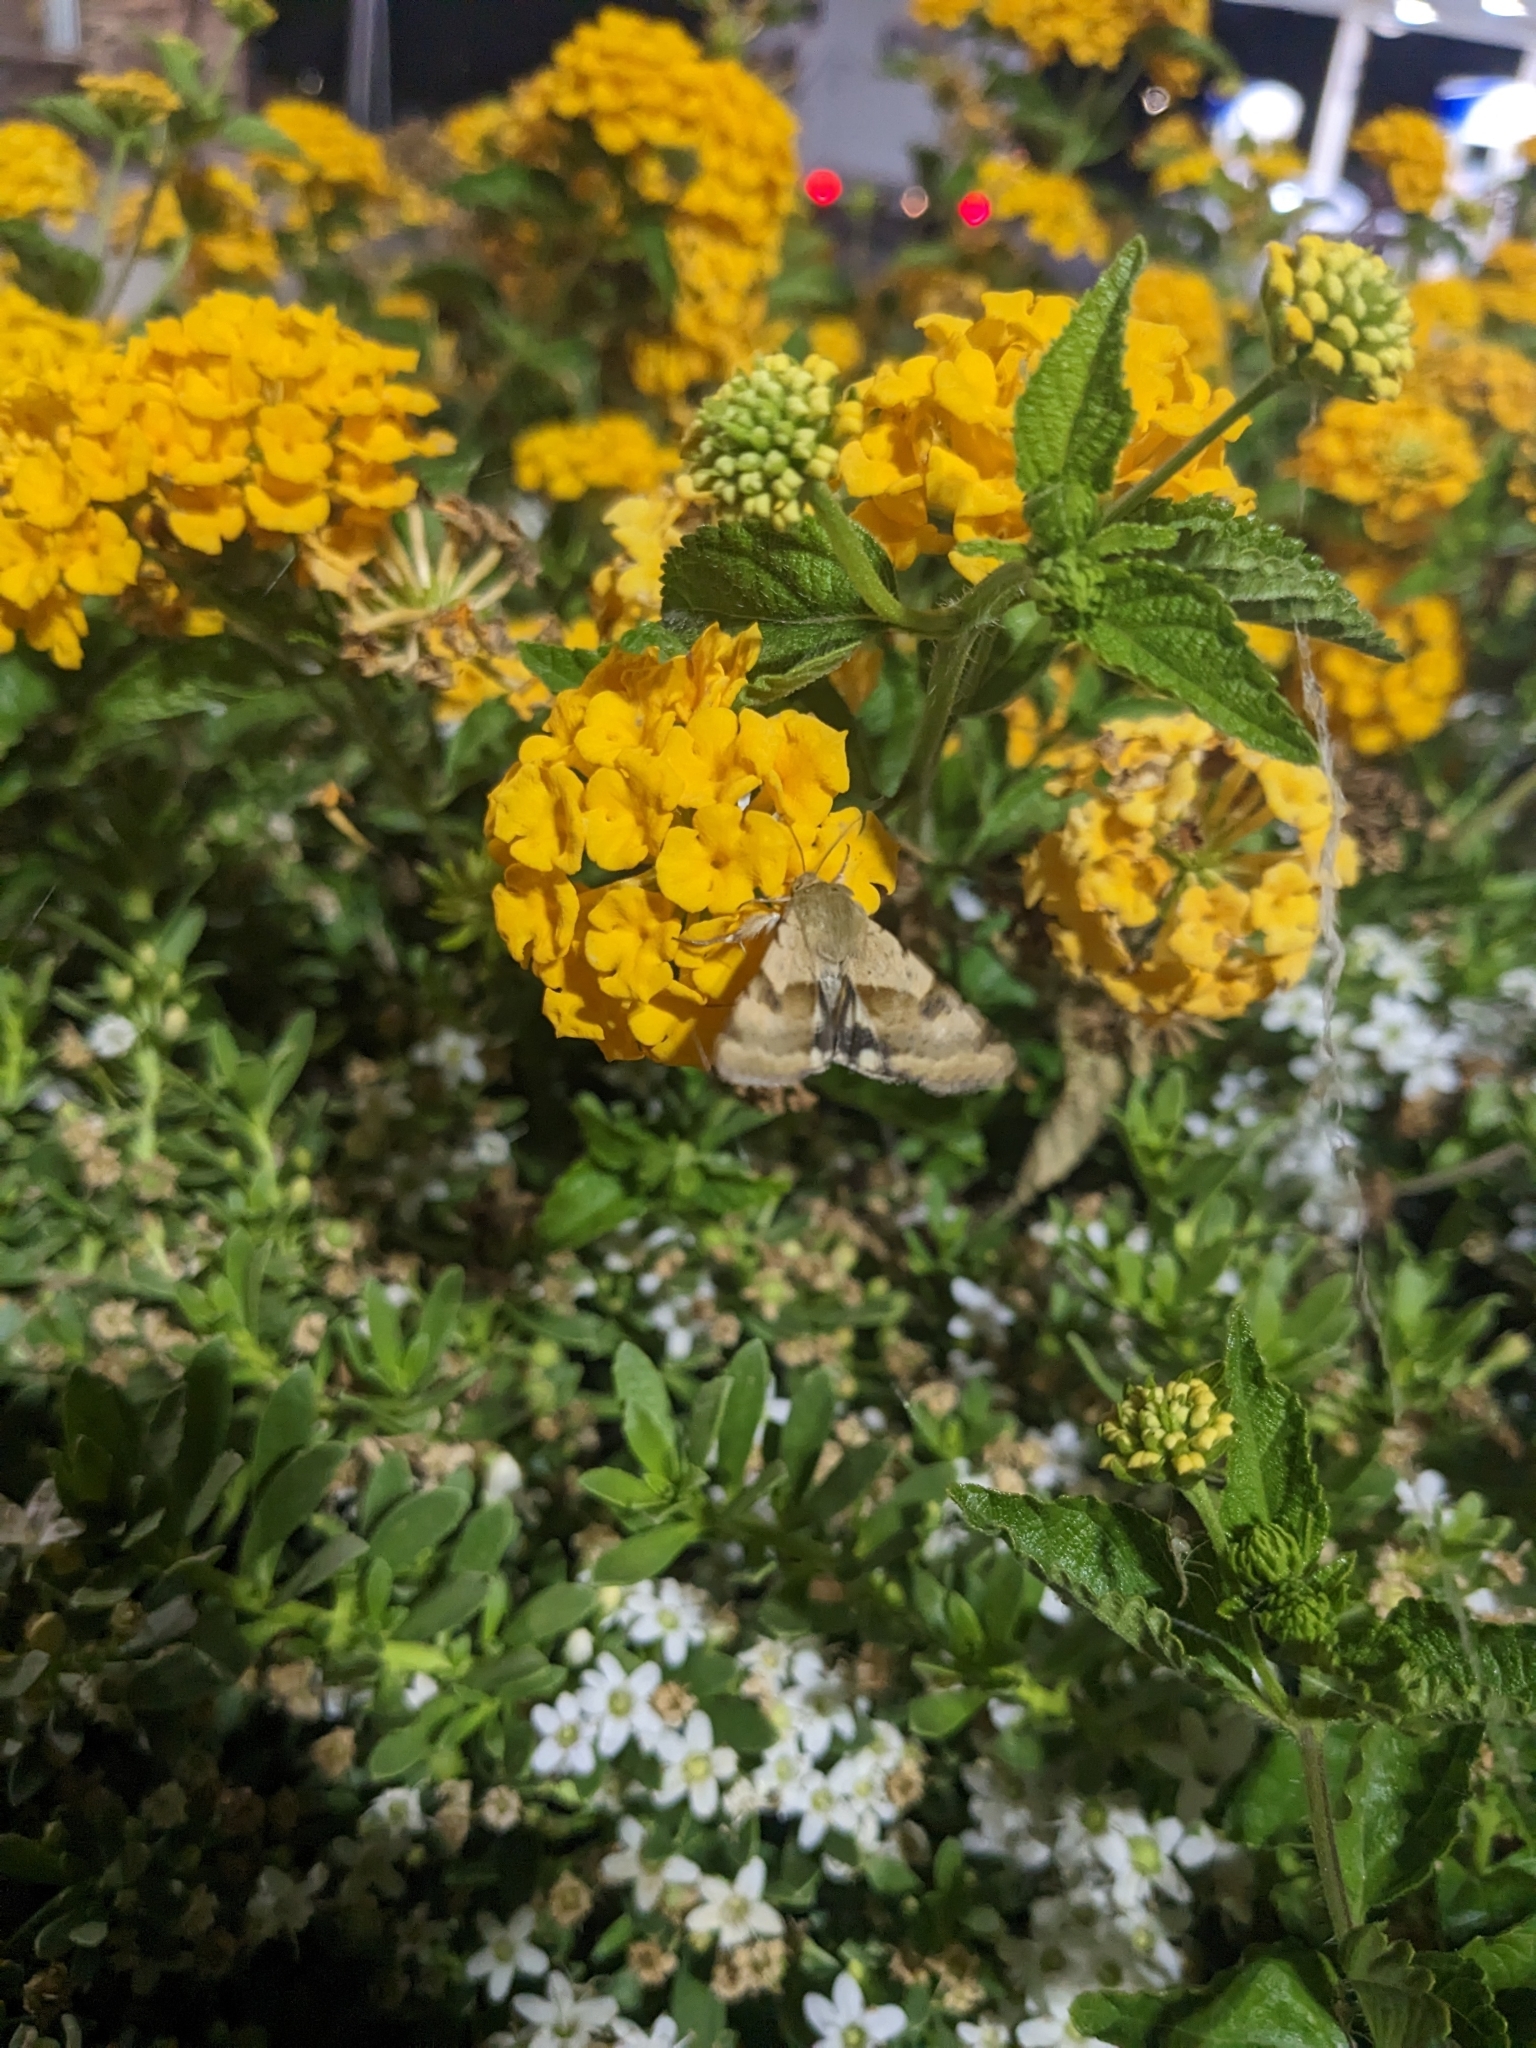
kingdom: Animalia
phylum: Arthropoda
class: Insecta
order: Lepidoptera
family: Noctuidae
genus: Heliothis
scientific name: Heliothis phloxiphaga
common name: Darker spotted straw moth
